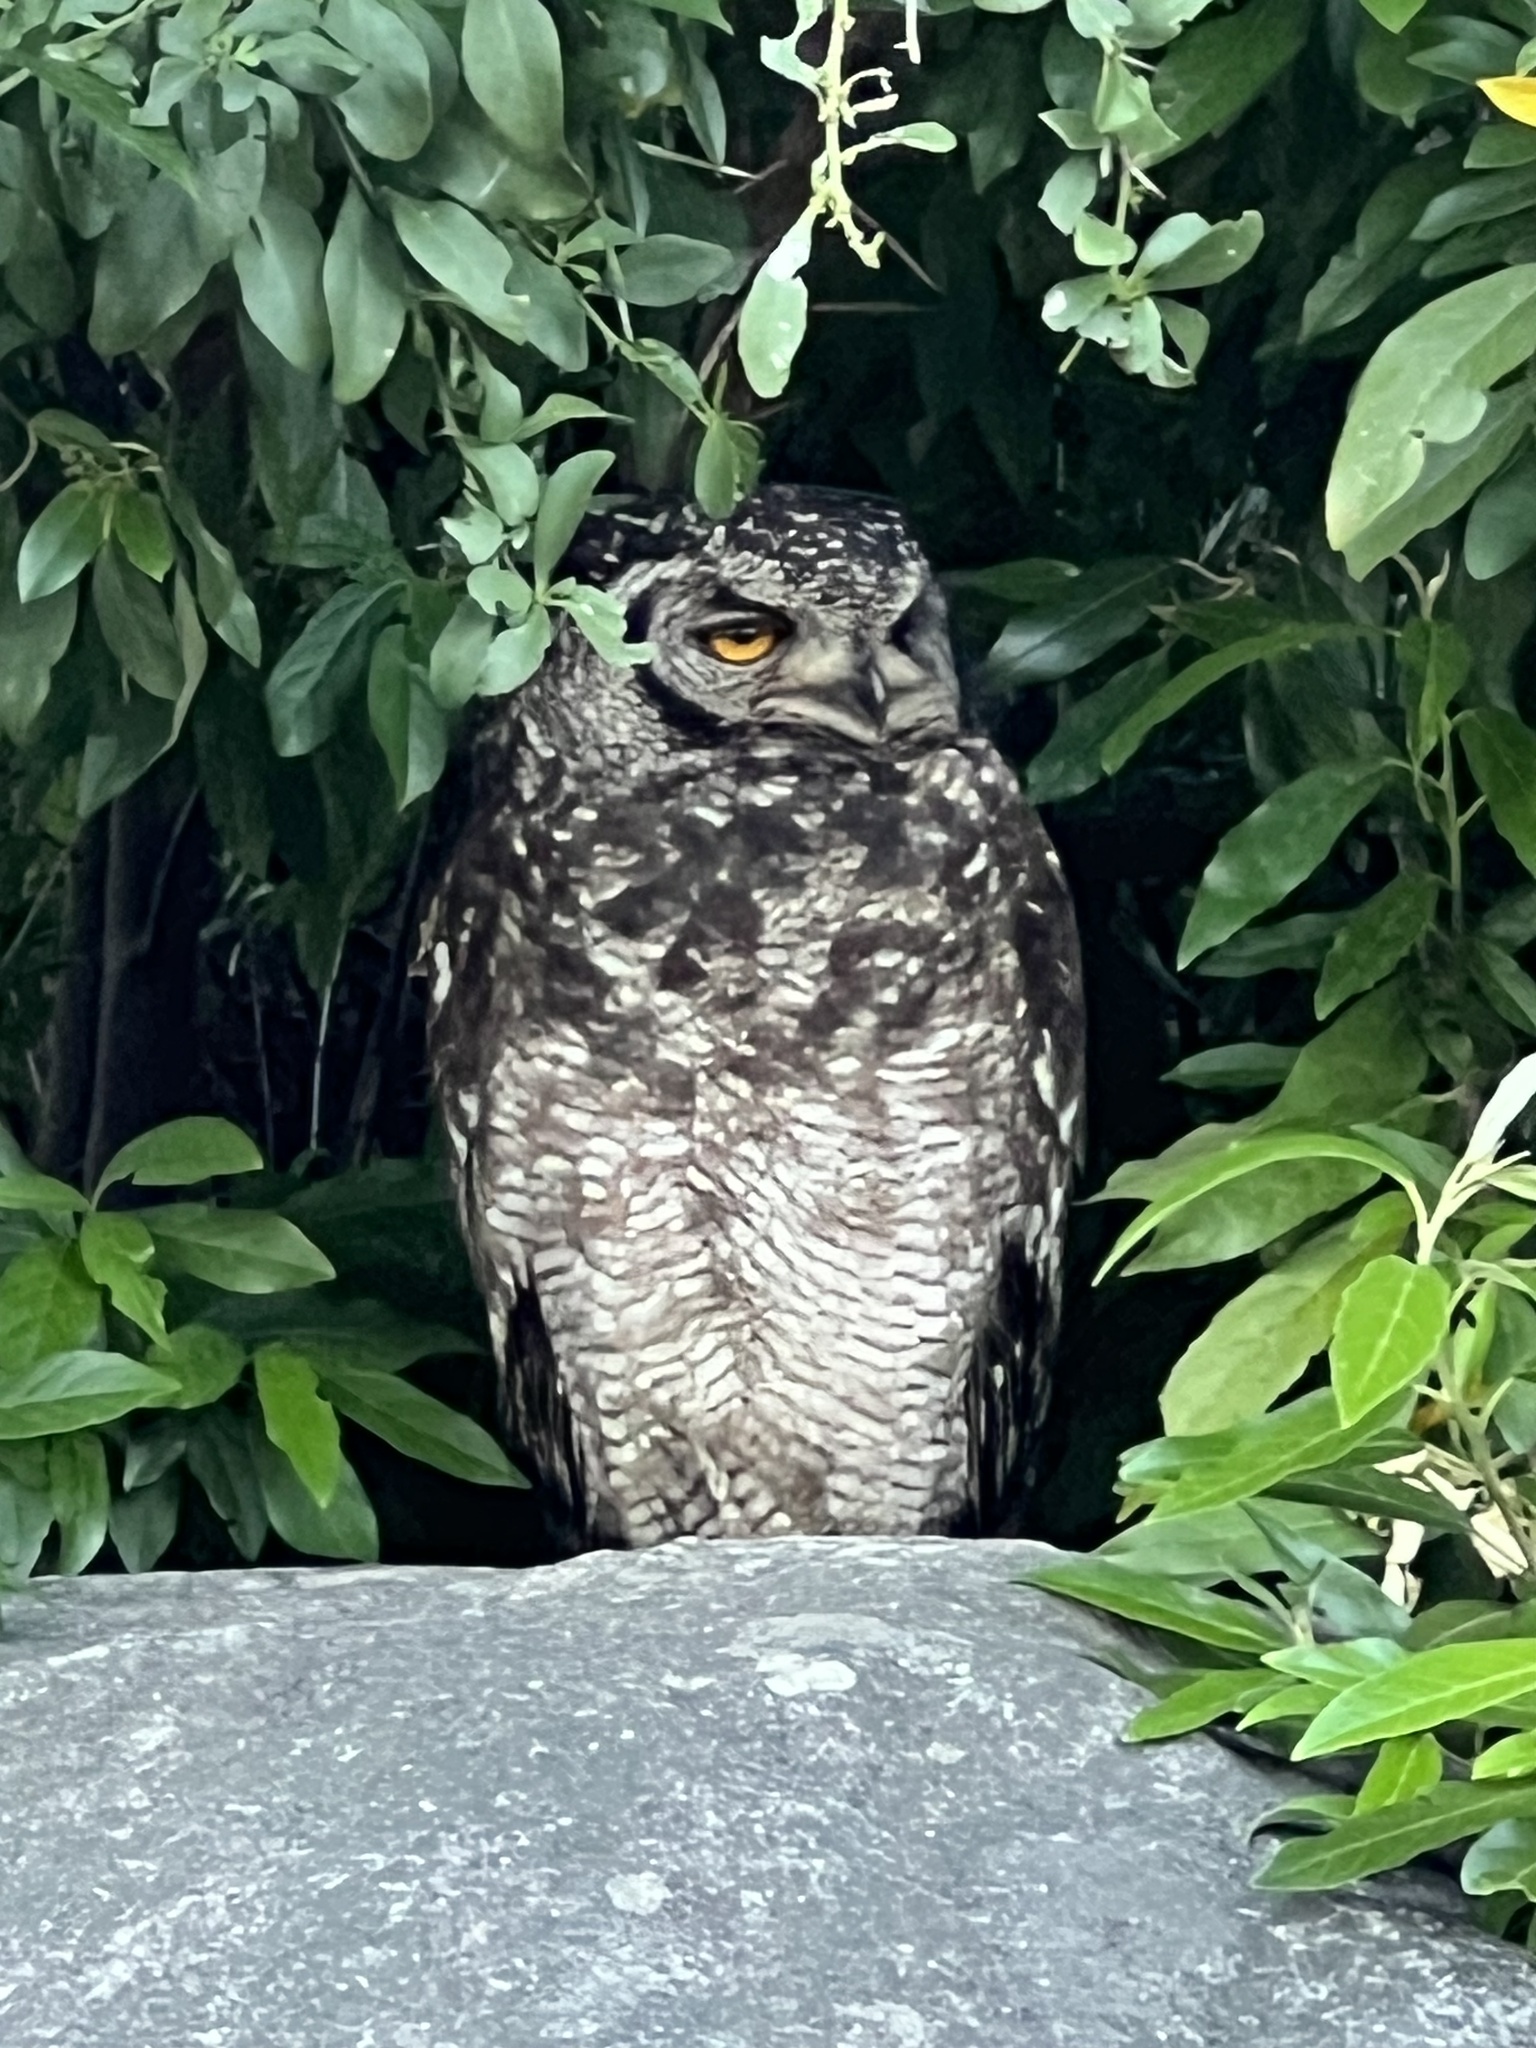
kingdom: Animalia
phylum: Chordata
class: Aves
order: Strigiformes
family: Strigidae
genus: Bubo
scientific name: Bubo africanus
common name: Spotted eagle-owl
